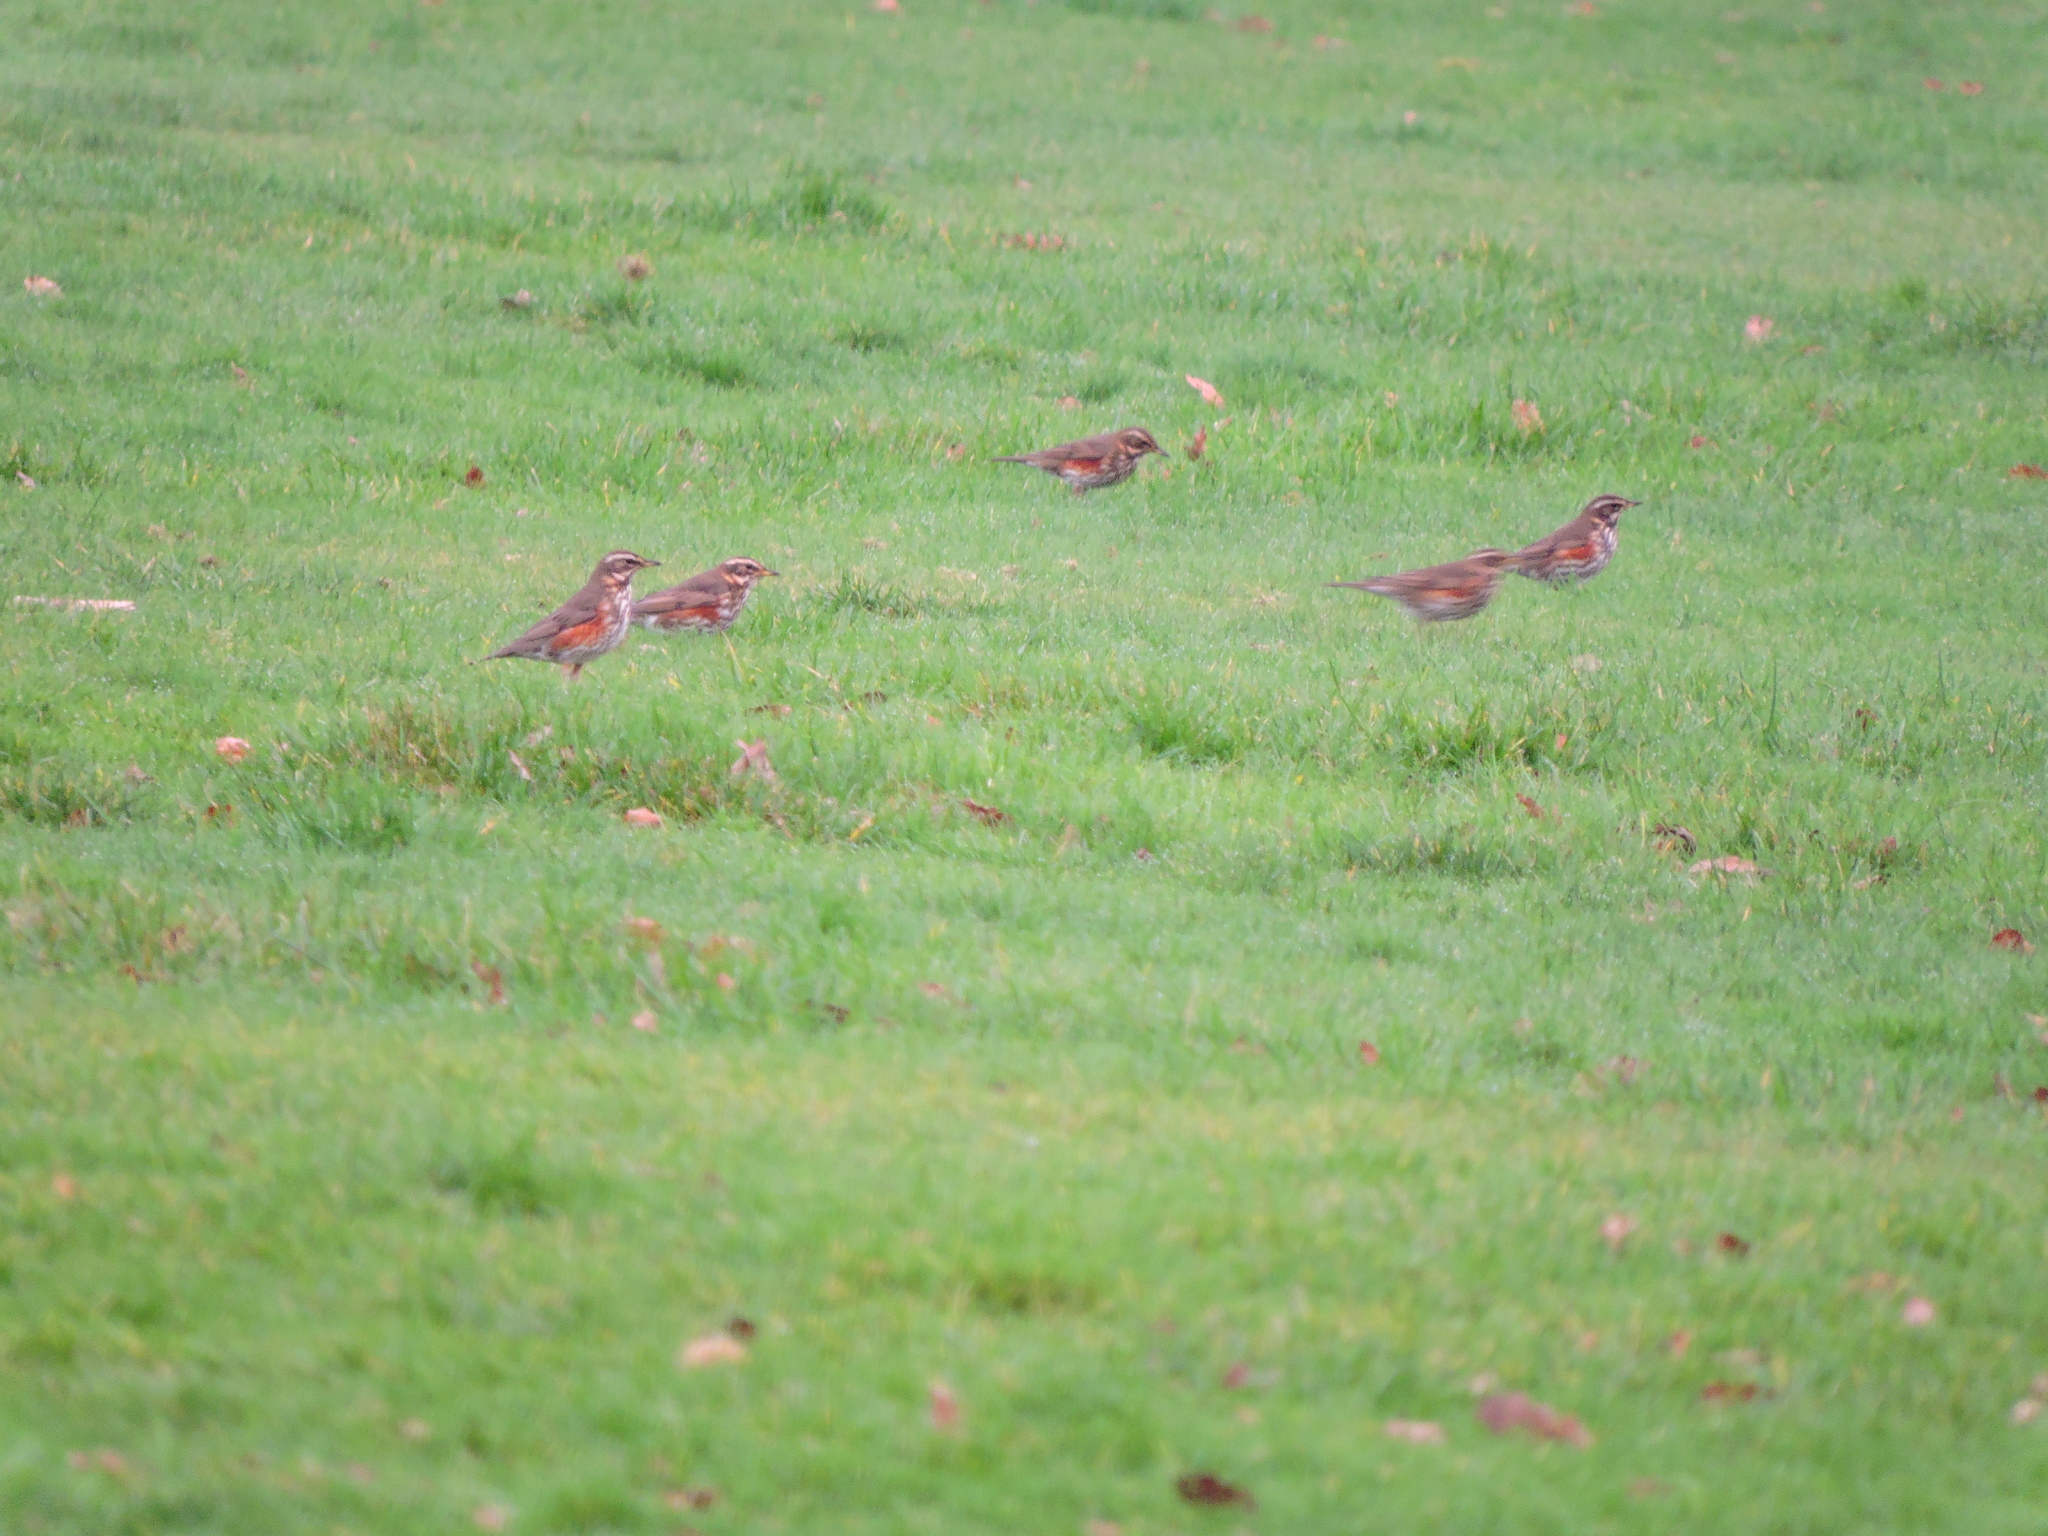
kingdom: Animalia
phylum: Chordata
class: Aves
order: Passeriformes
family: Turdidae
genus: Turdus
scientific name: Turdus iliacus
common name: Redwing
